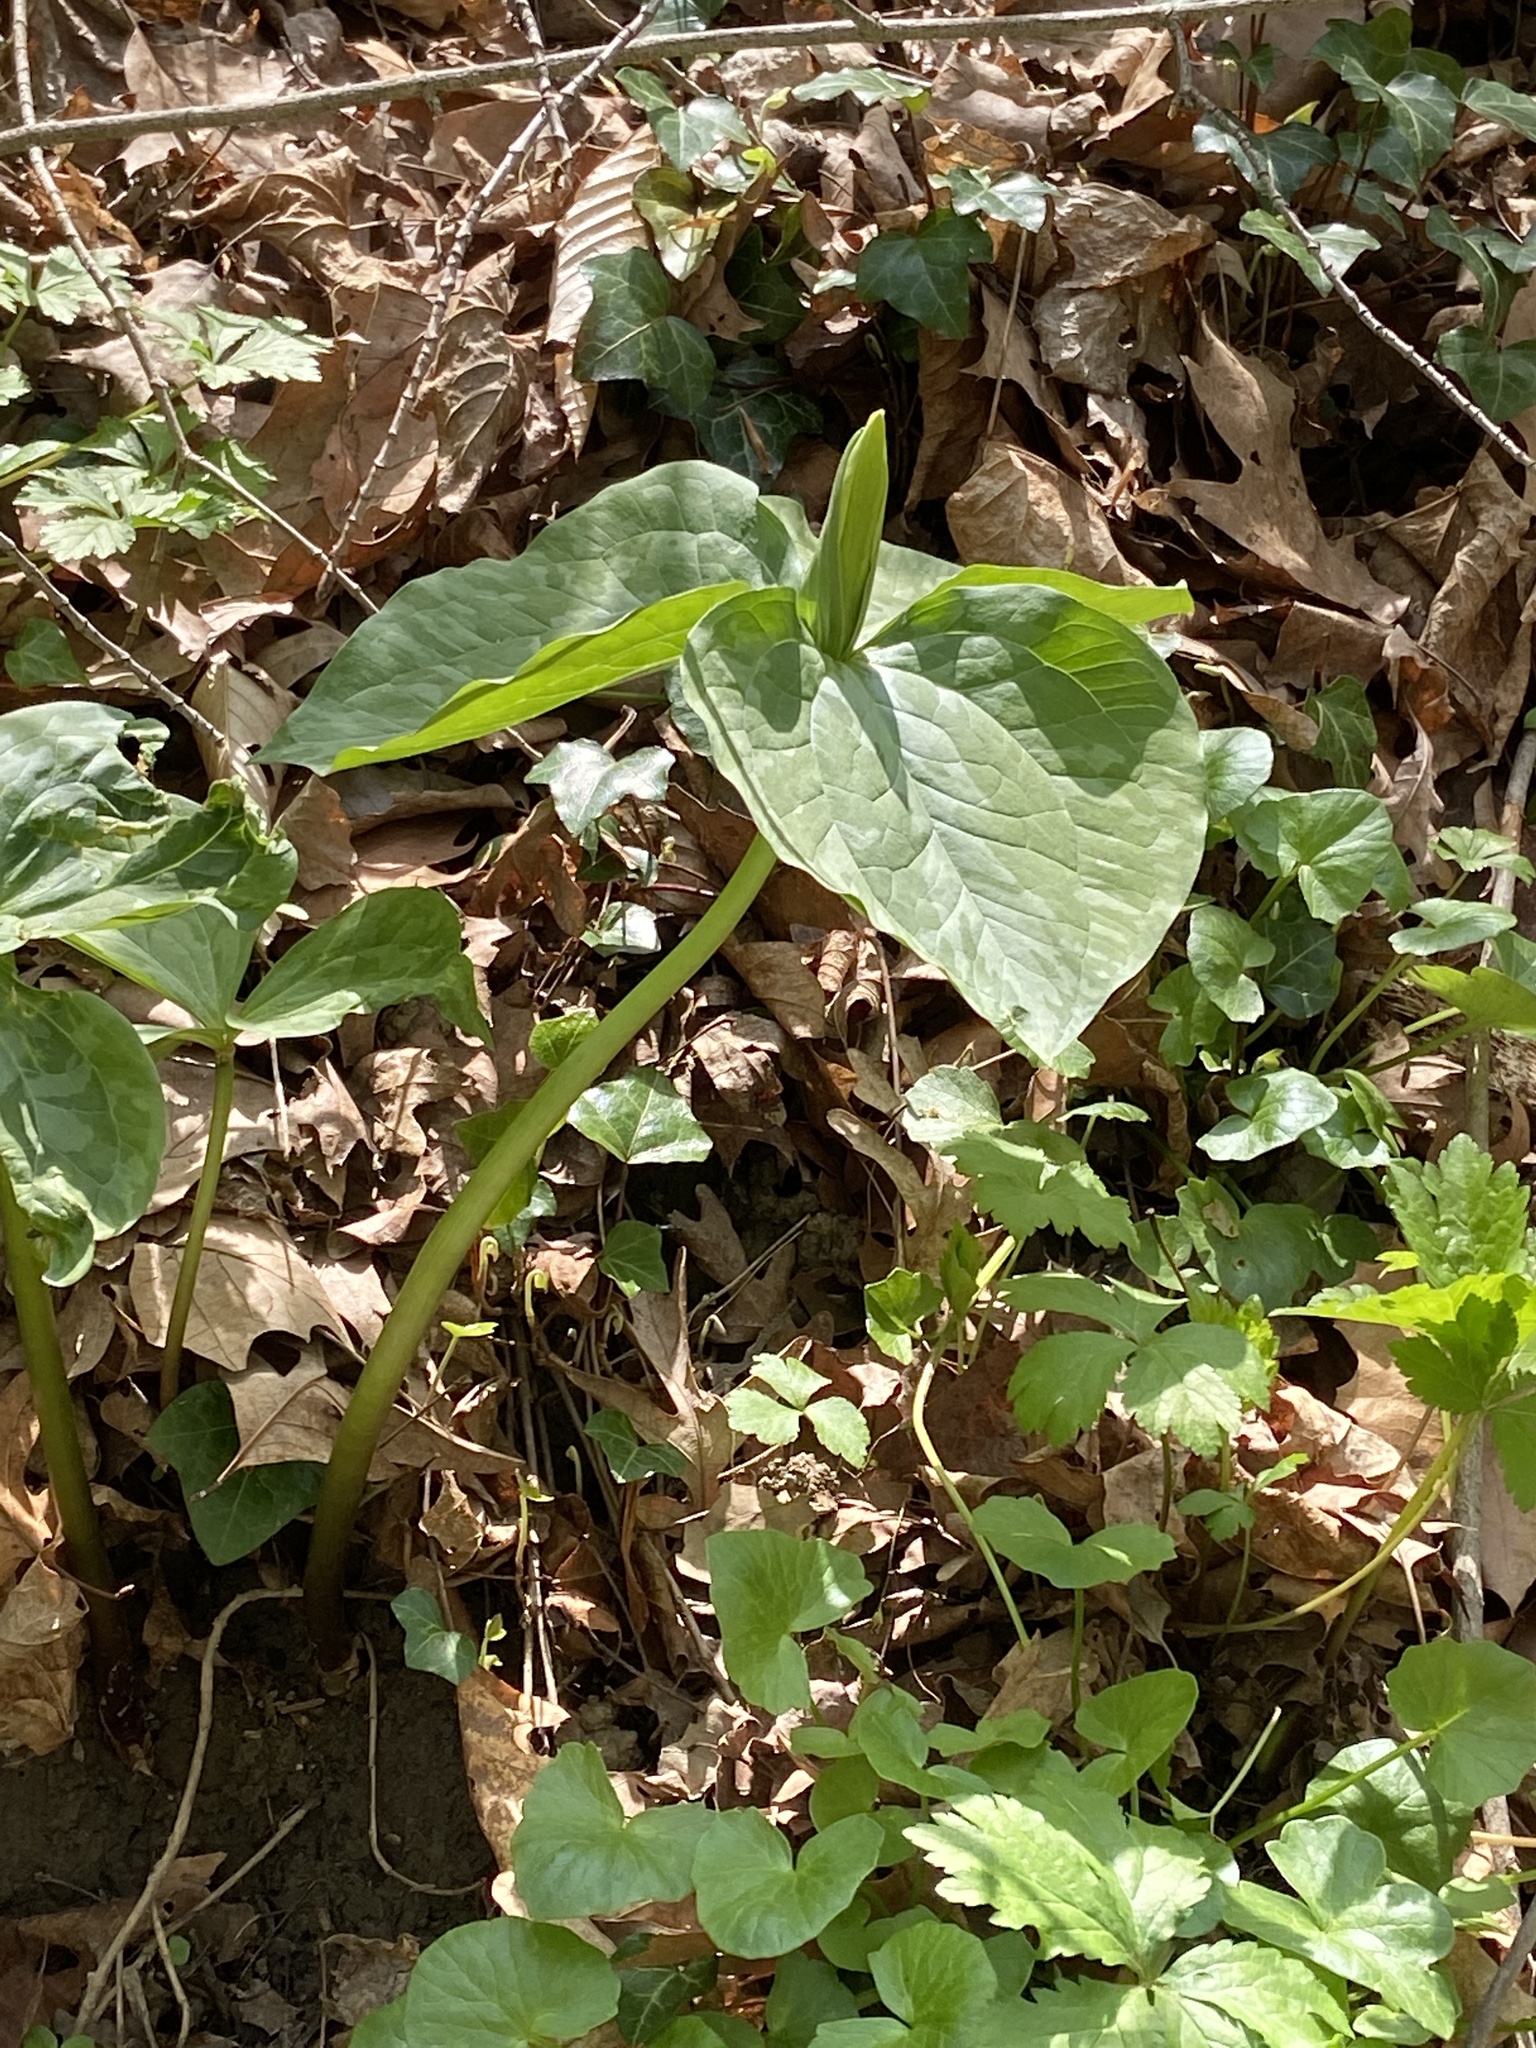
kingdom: Plantae
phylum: Tracheophyta
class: Liliopsida
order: Liliales
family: Melanthiaceae
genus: Trillium
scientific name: Trillium sessile
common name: Sessile trillium
